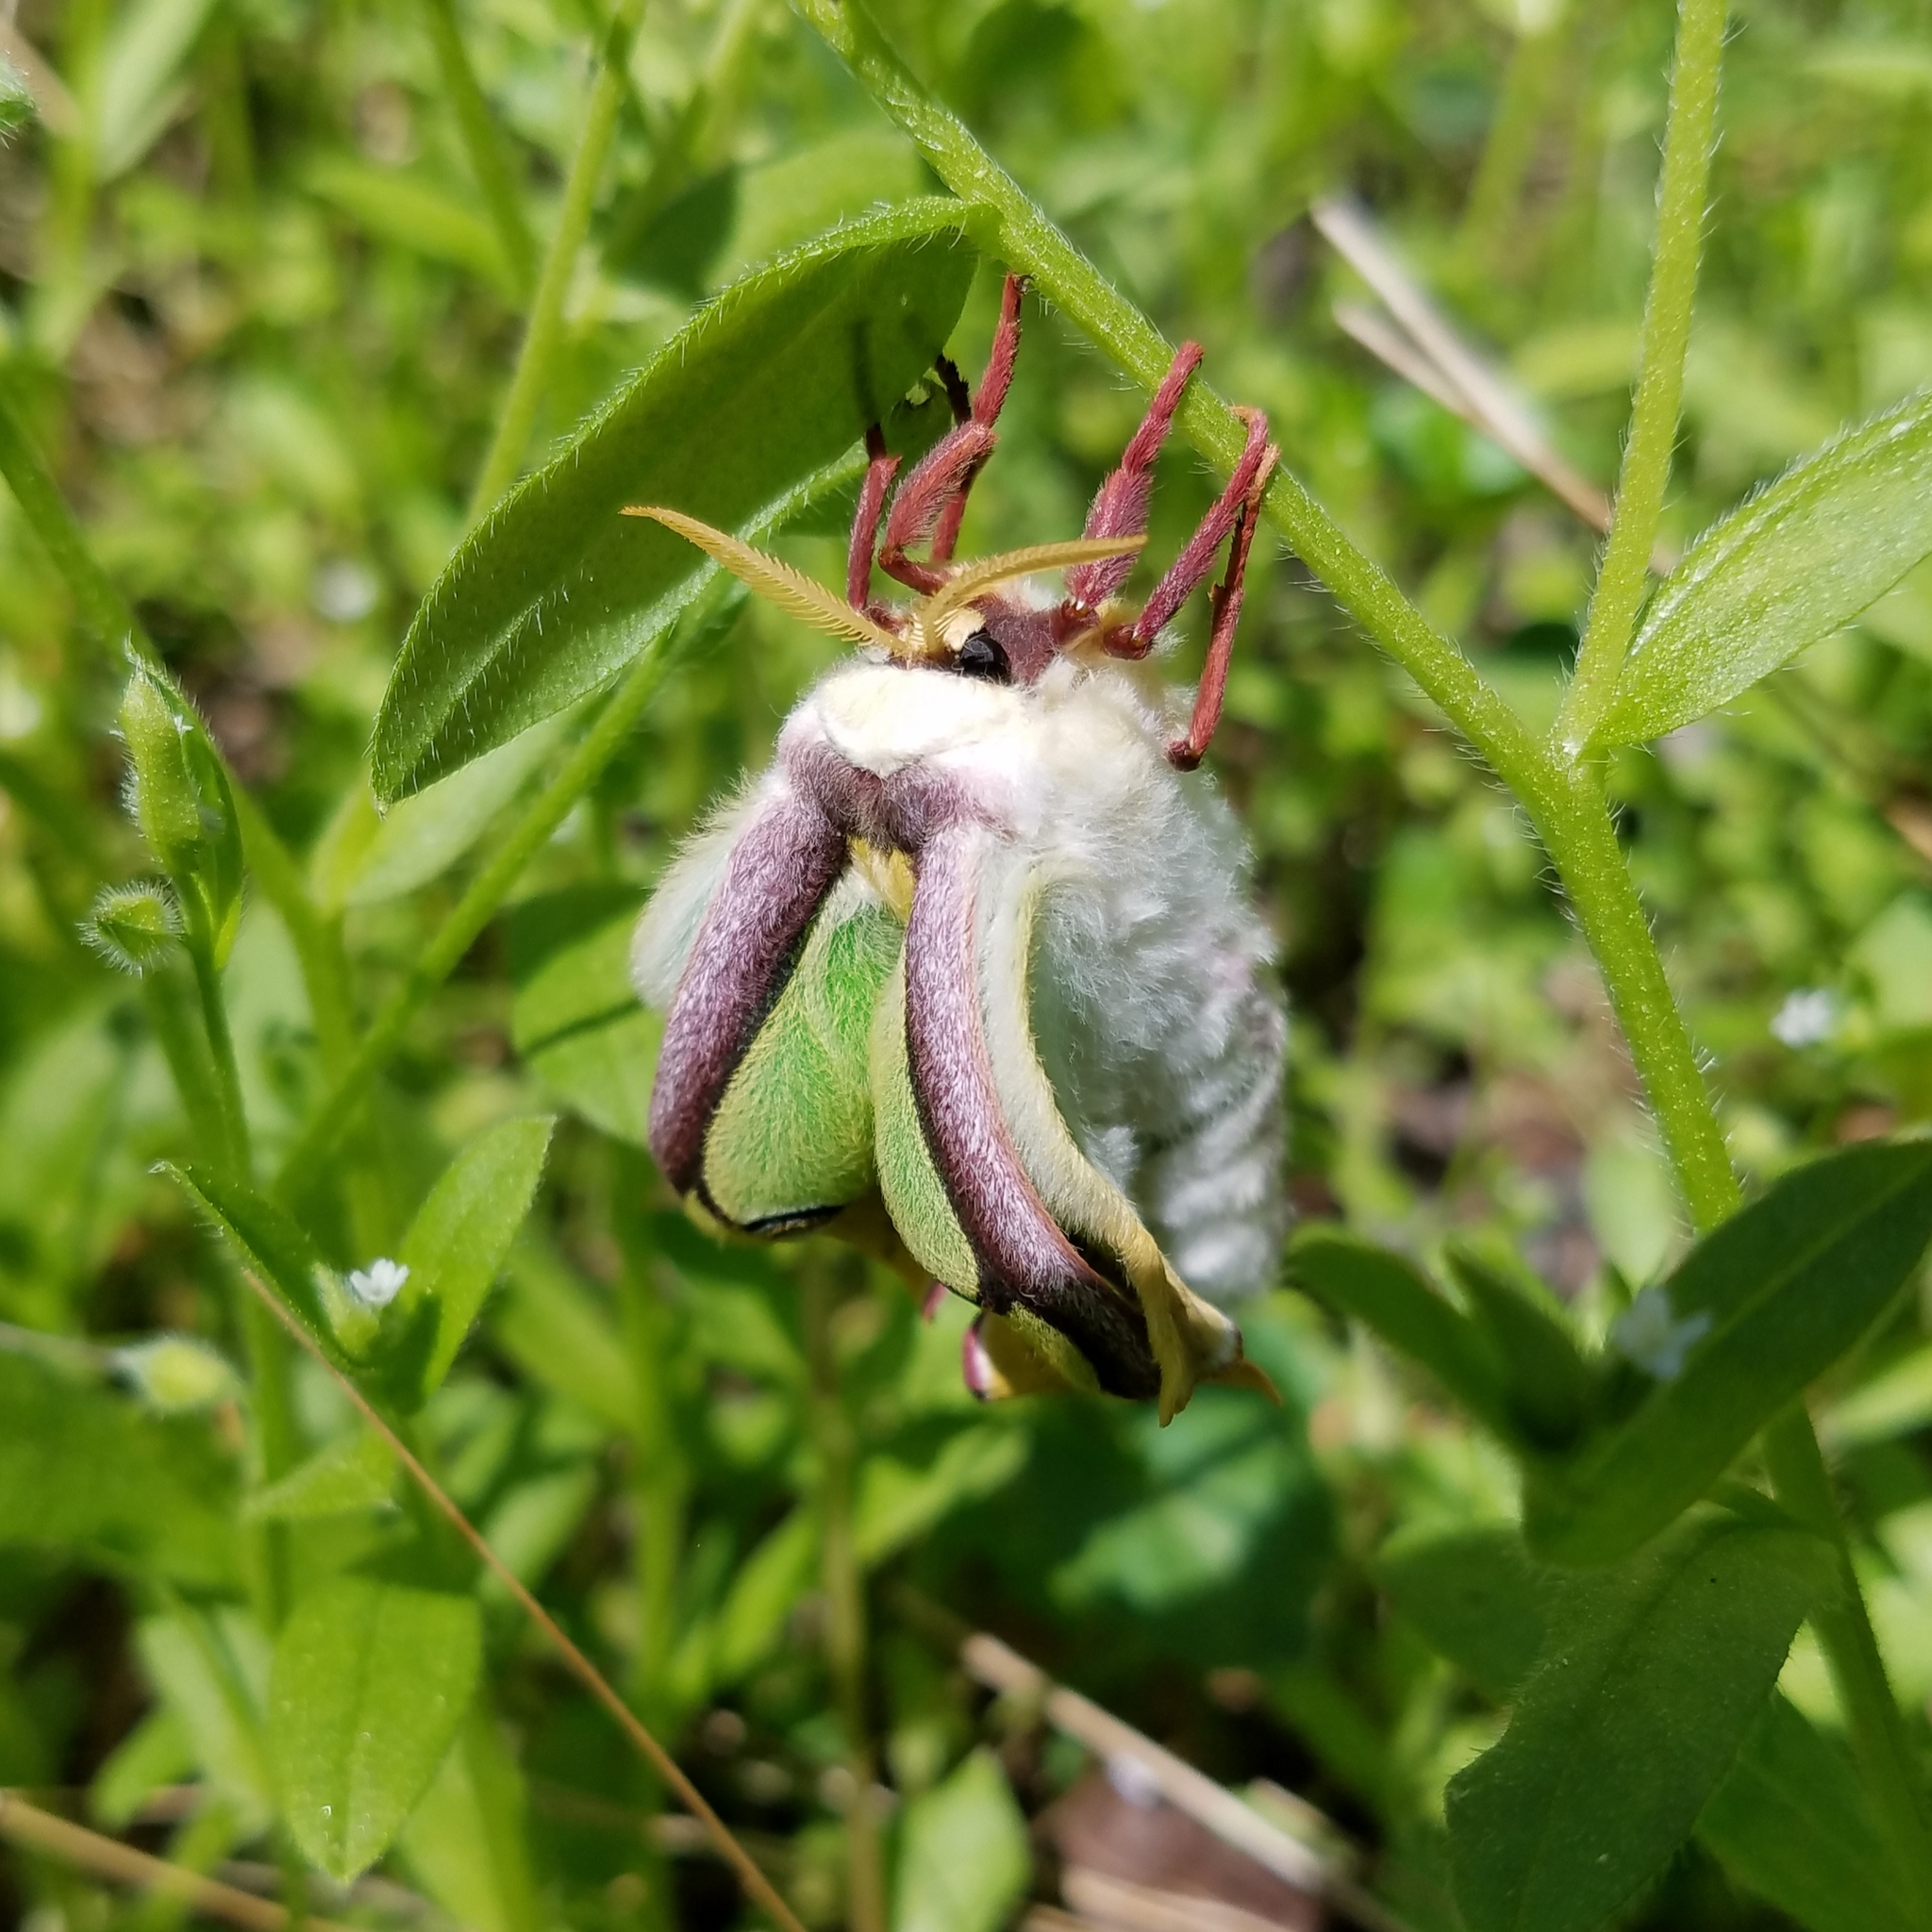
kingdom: Animalia
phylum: Arthropoda
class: Insecta
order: Lepidoptera
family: Saturniidae
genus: Actias
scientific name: Actias luna
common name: Luna moth
